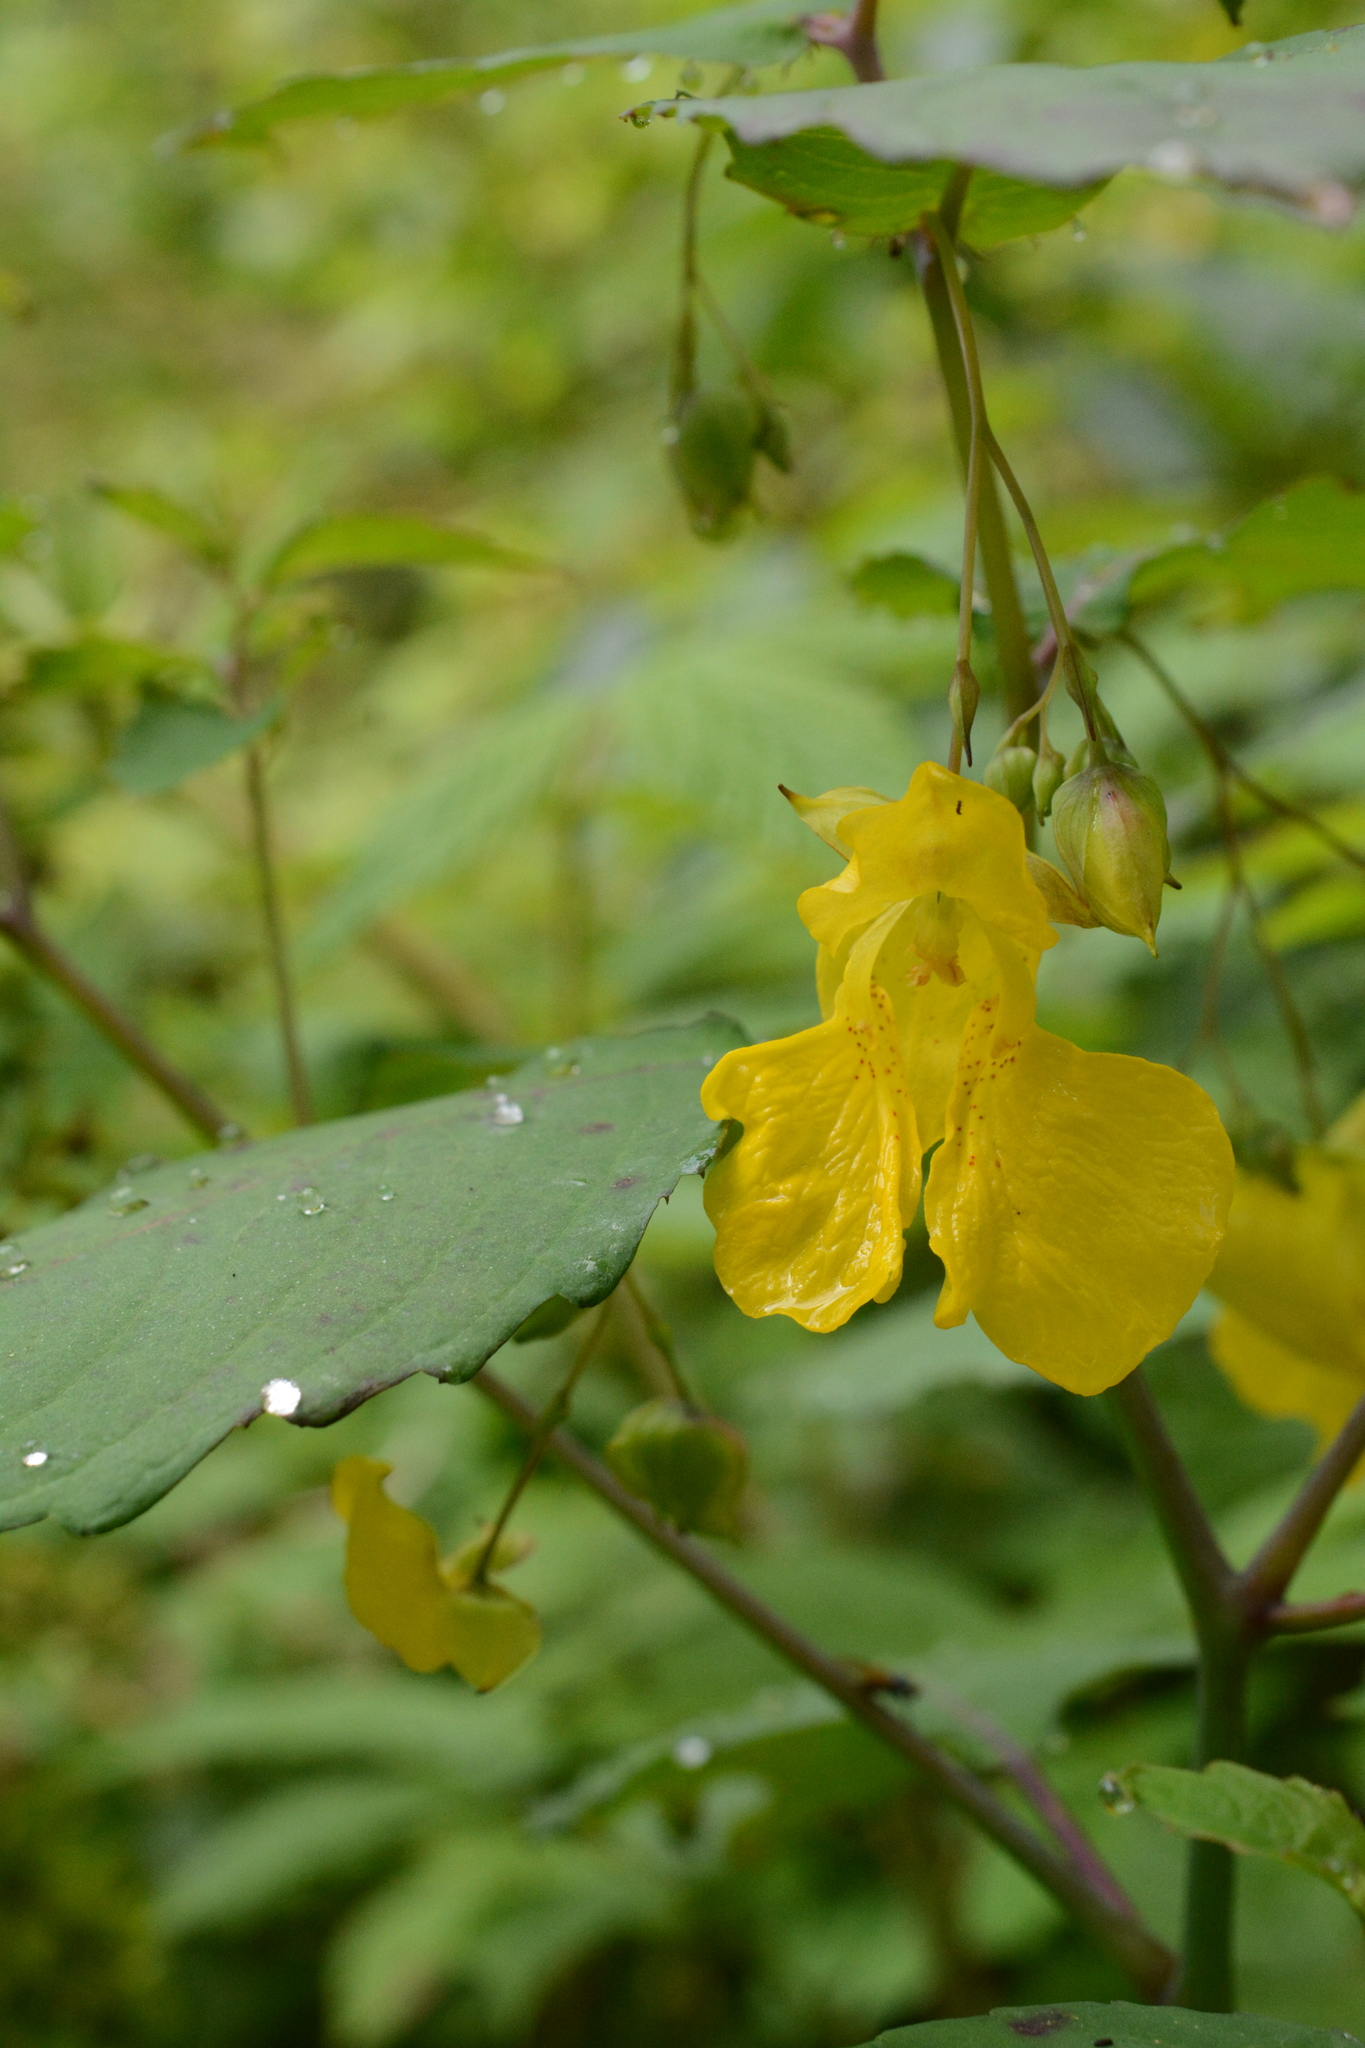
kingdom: Plantae
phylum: Tracheophyta
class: Magnoliopsida
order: Ericales
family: Balsaminaceae
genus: Impatiens
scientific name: Impatiens pallida
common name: Pale snapweed
